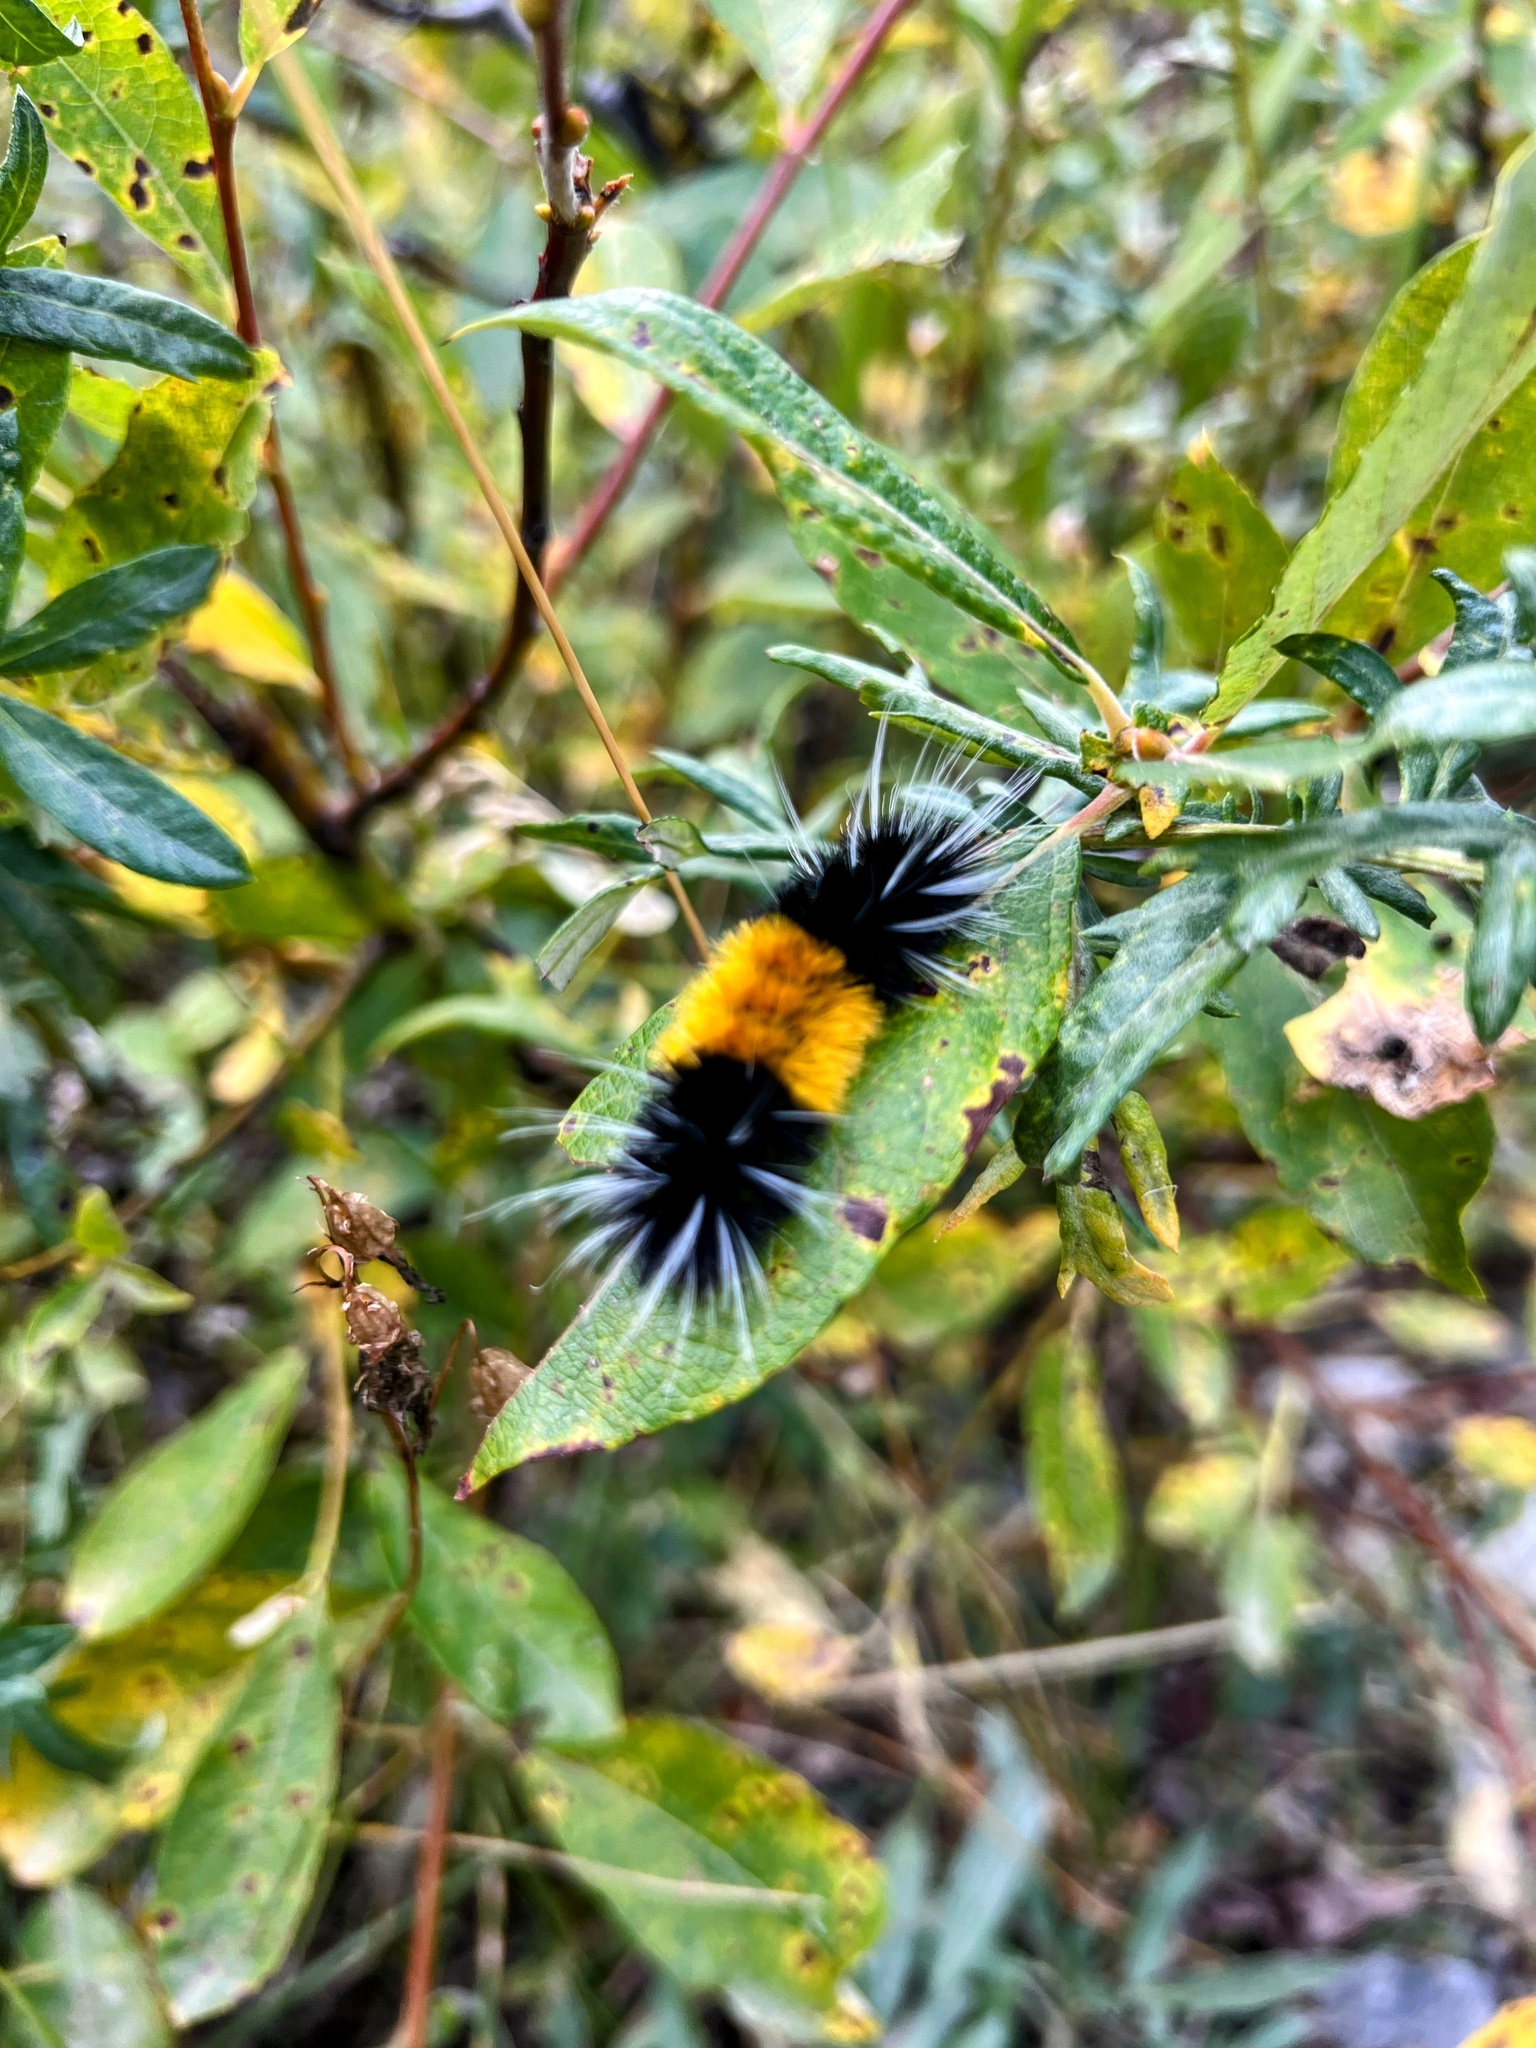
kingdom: Animalia
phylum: Arthropoda
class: Insecta
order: Lepidoptera
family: Erebidae
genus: Lophocampa
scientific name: Lophocampa maculata
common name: Spotted tussock moth
